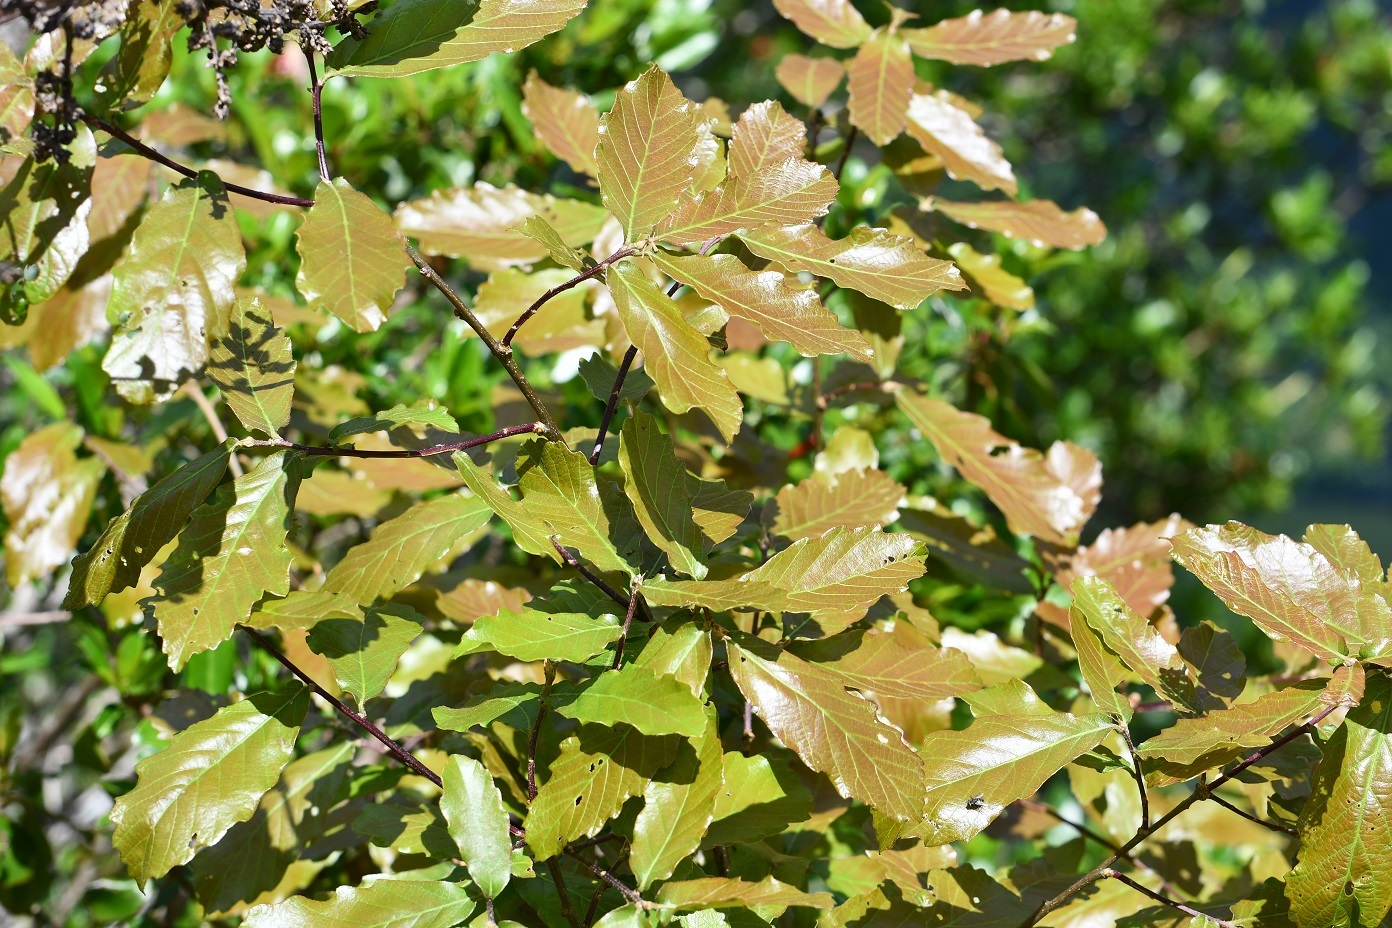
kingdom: Plantae
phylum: Tracheophyta
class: Magnoliopsida
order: Fagales
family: Fagaceae
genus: Quercus
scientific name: Quercus purulhana
